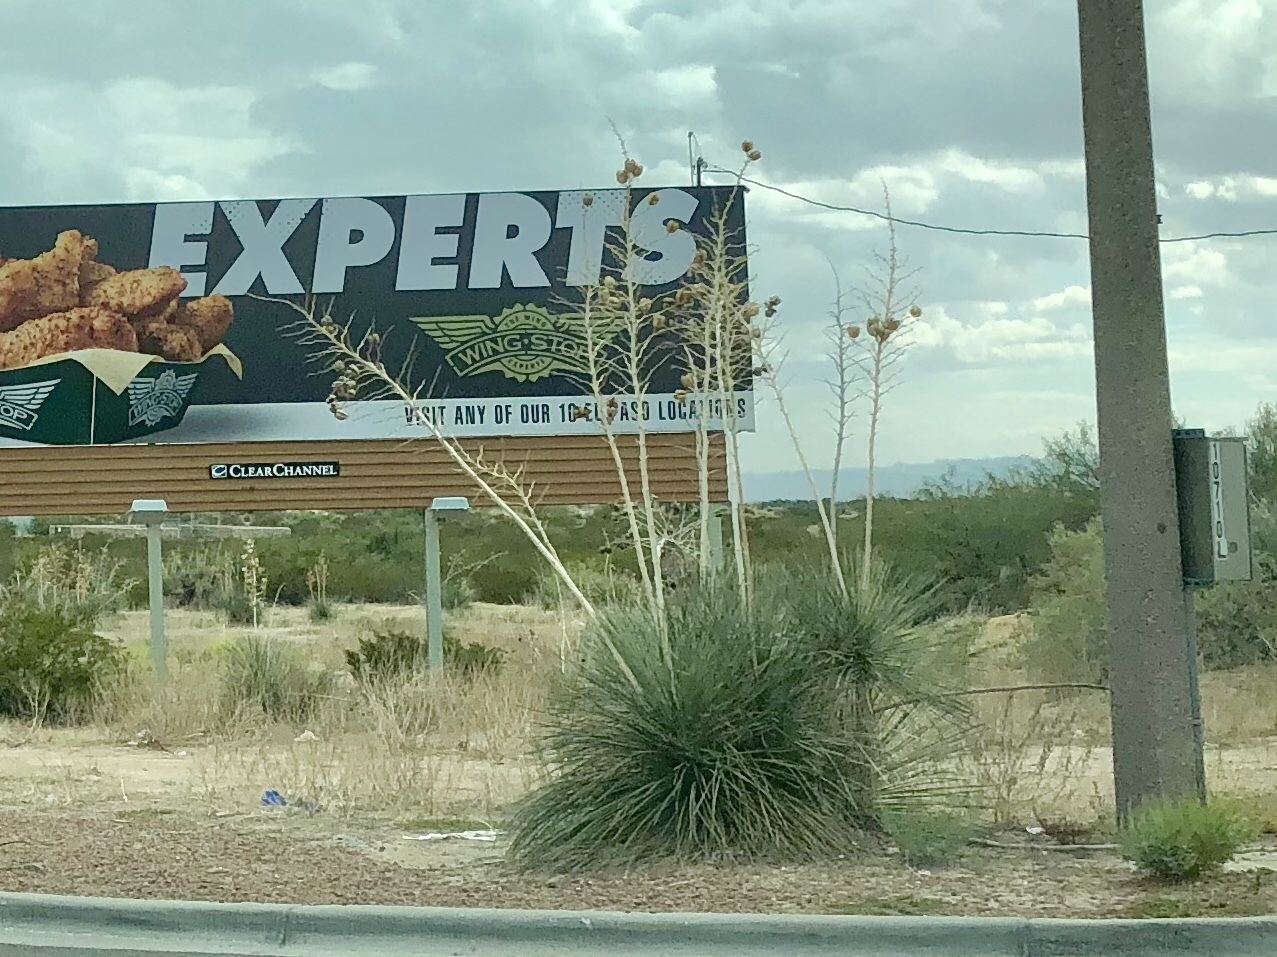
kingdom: Plantae
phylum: Tracheophyta
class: Liliopsida
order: Asparagales
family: Asparagaceae
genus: Yucca
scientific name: Yucca elata
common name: Palmella
